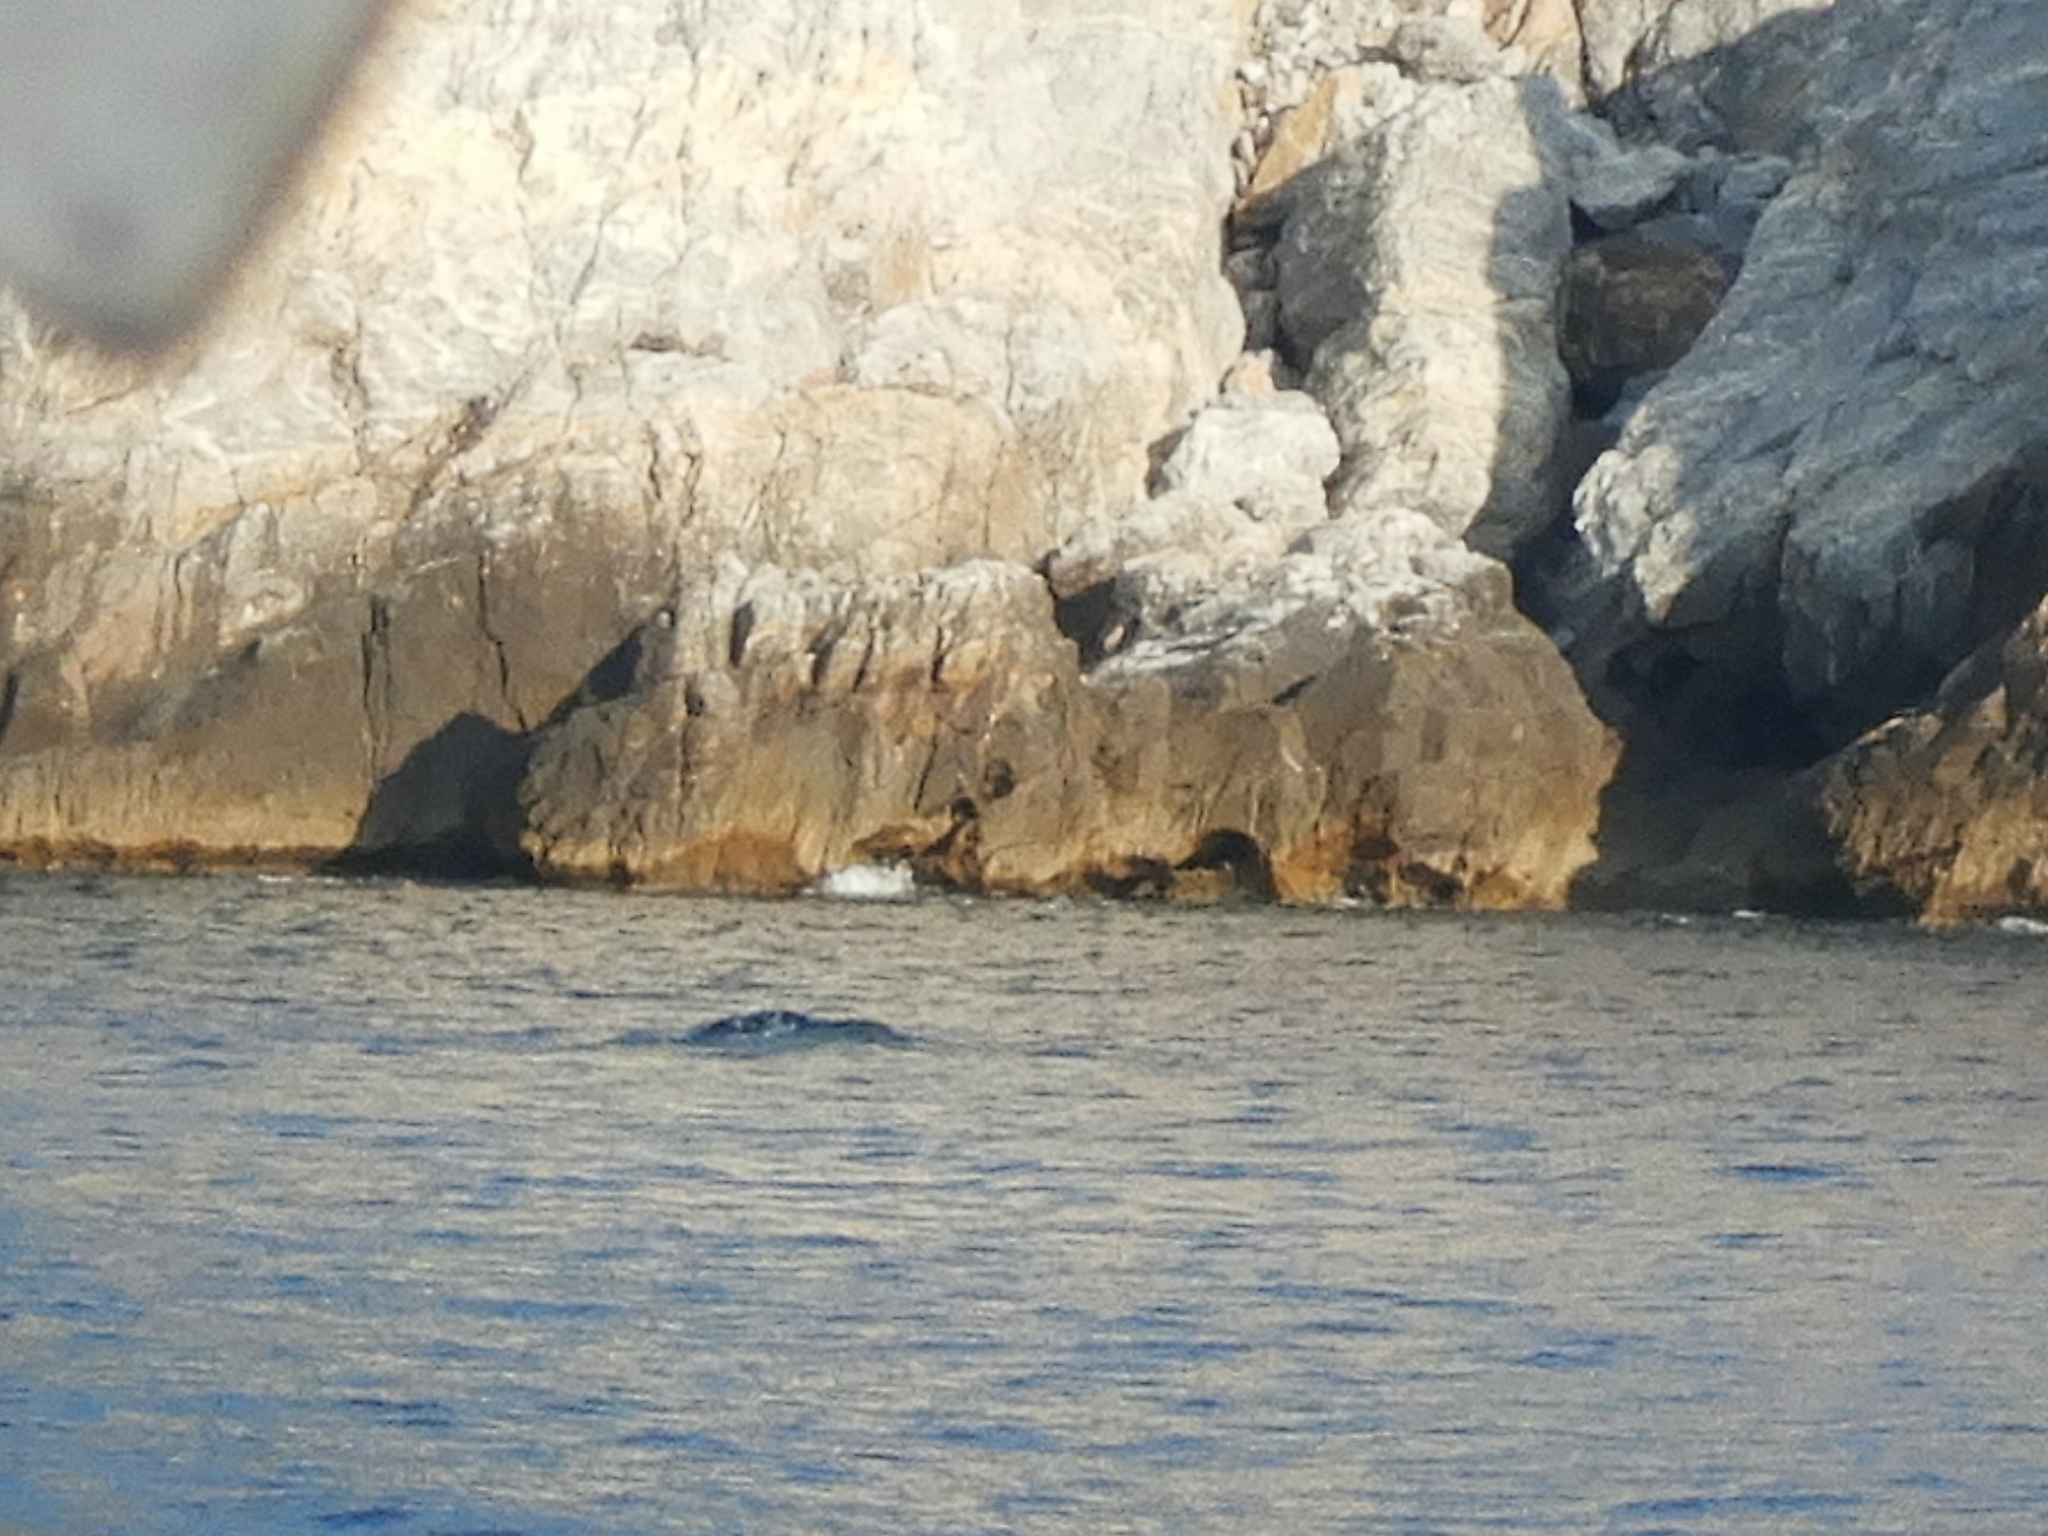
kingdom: Animalia
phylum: Chordata
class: Mammalia
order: Carnivora
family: Phocidae
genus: Monachus
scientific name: Monachus monachus
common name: Mediterranean monk seal
